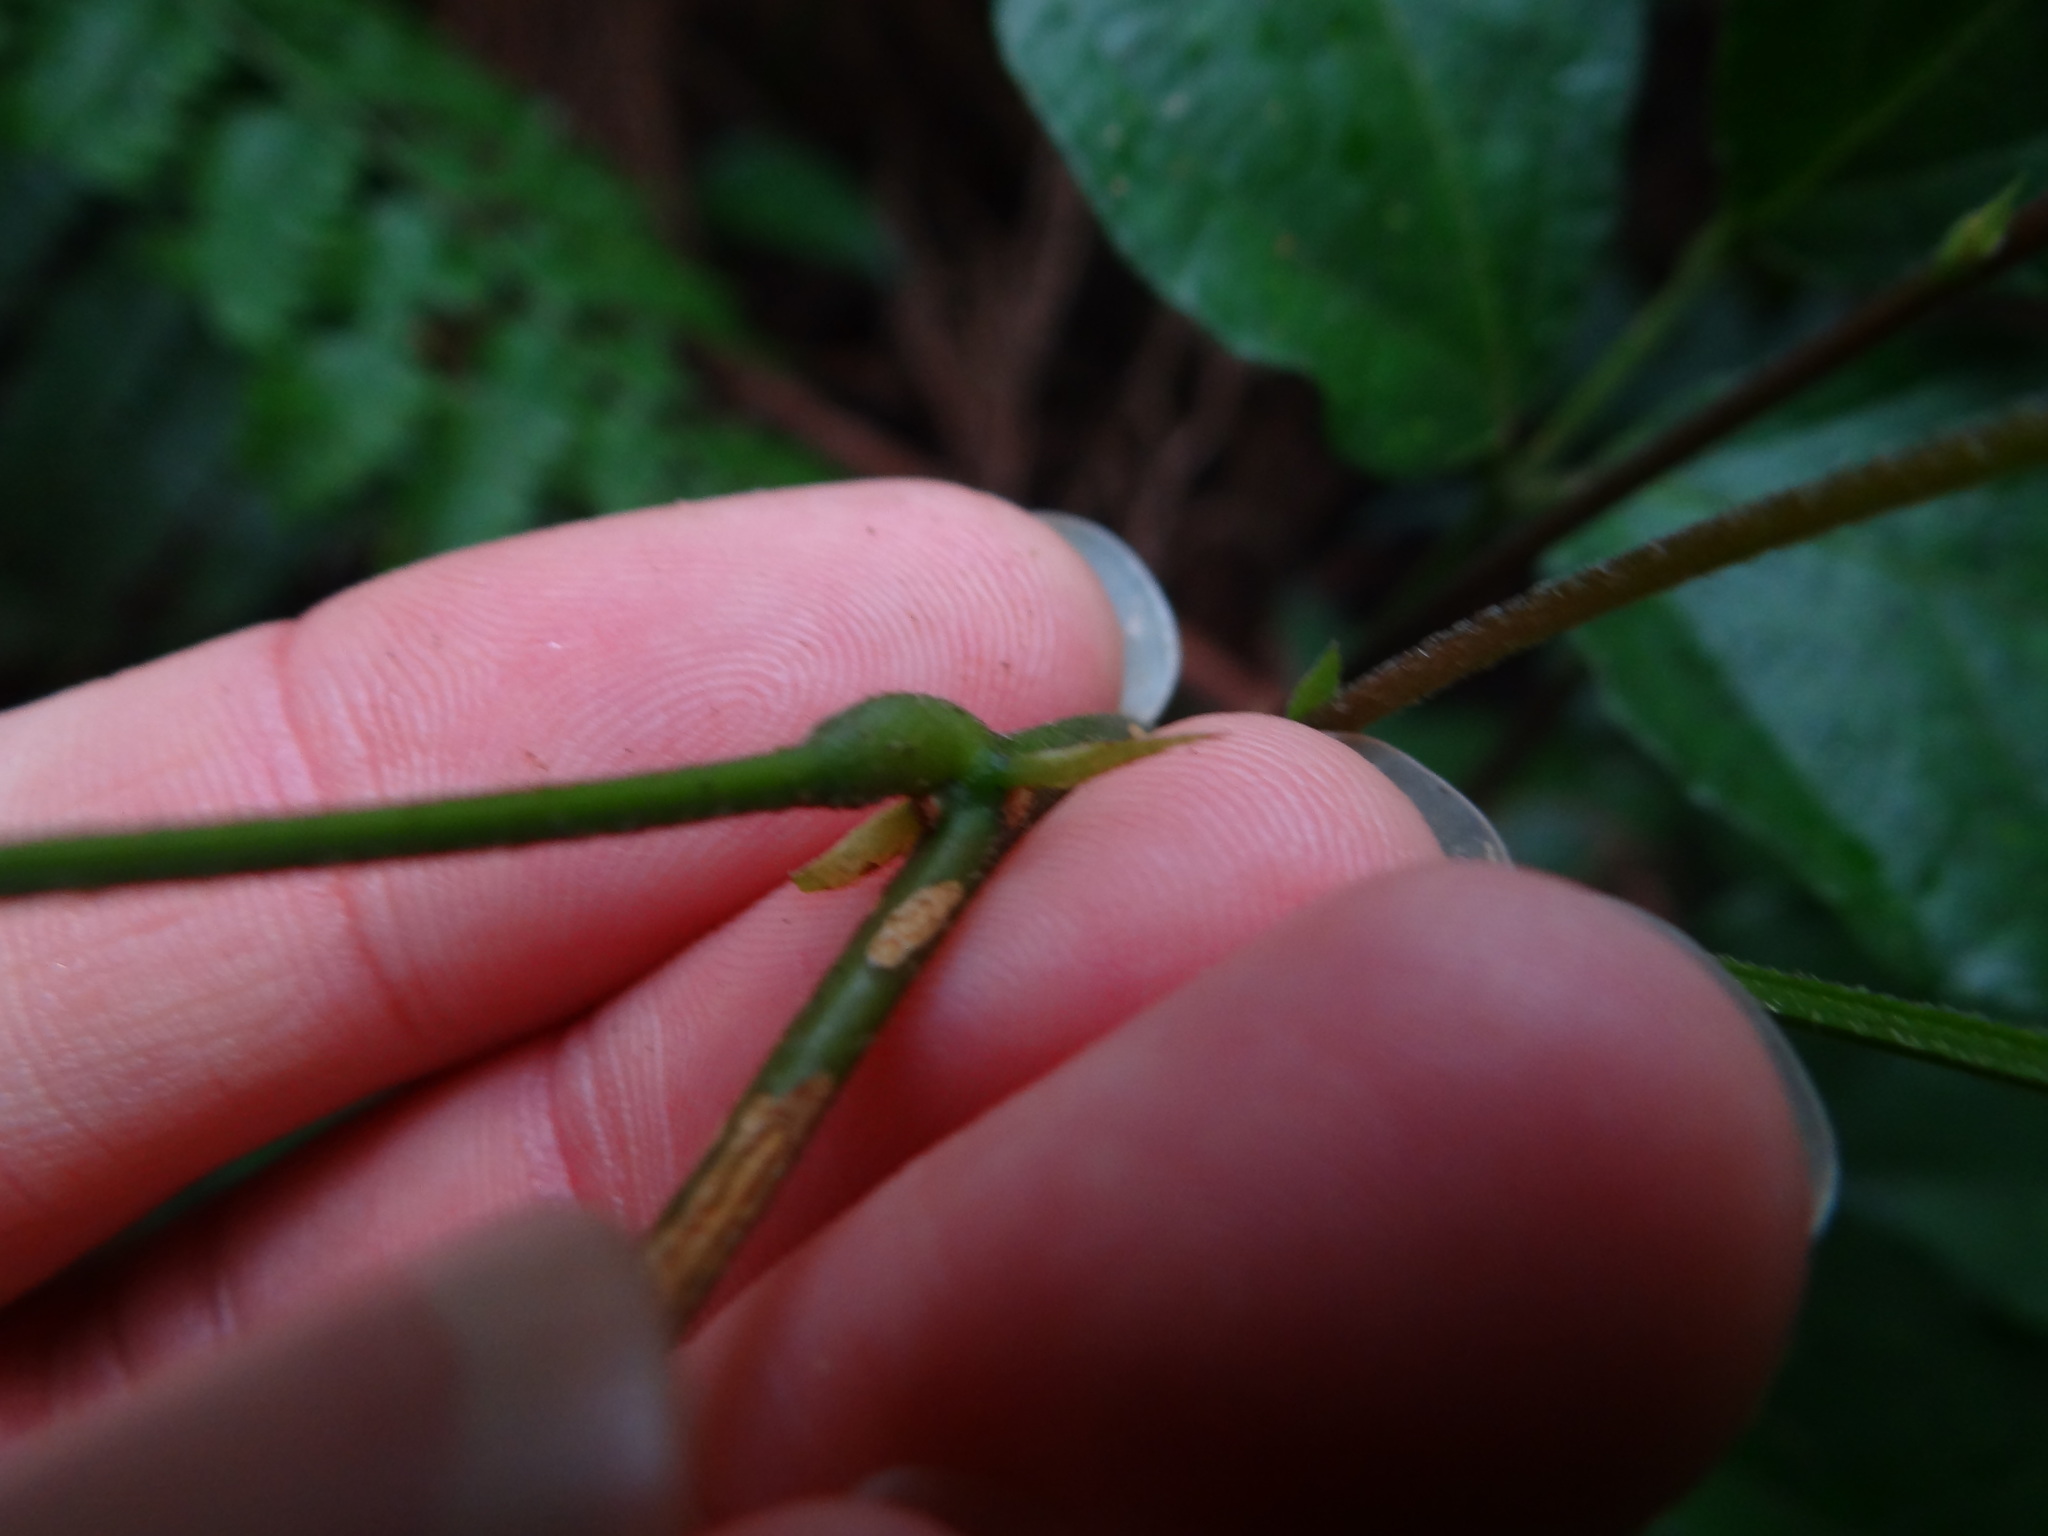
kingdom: Plantae
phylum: Tracheophyta
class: Magnoliopsida
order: Fabales
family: Fabaceae
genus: Hylodesmum
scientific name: Hylodesmum laxum
